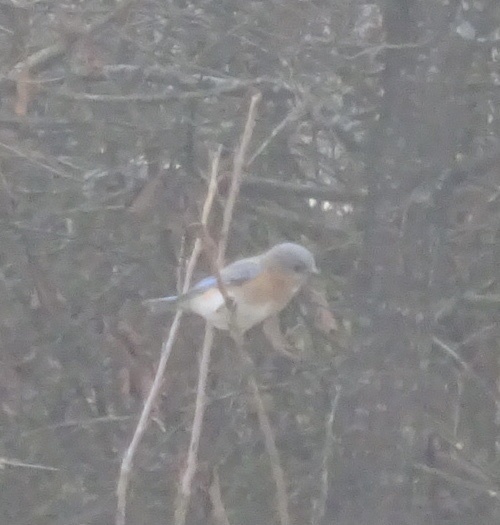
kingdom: Animalia
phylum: Chordata
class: Aves
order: Passeriformes
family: Turdidae
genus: Sialia
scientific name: Sialia sialis
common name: Eastern bluebird
